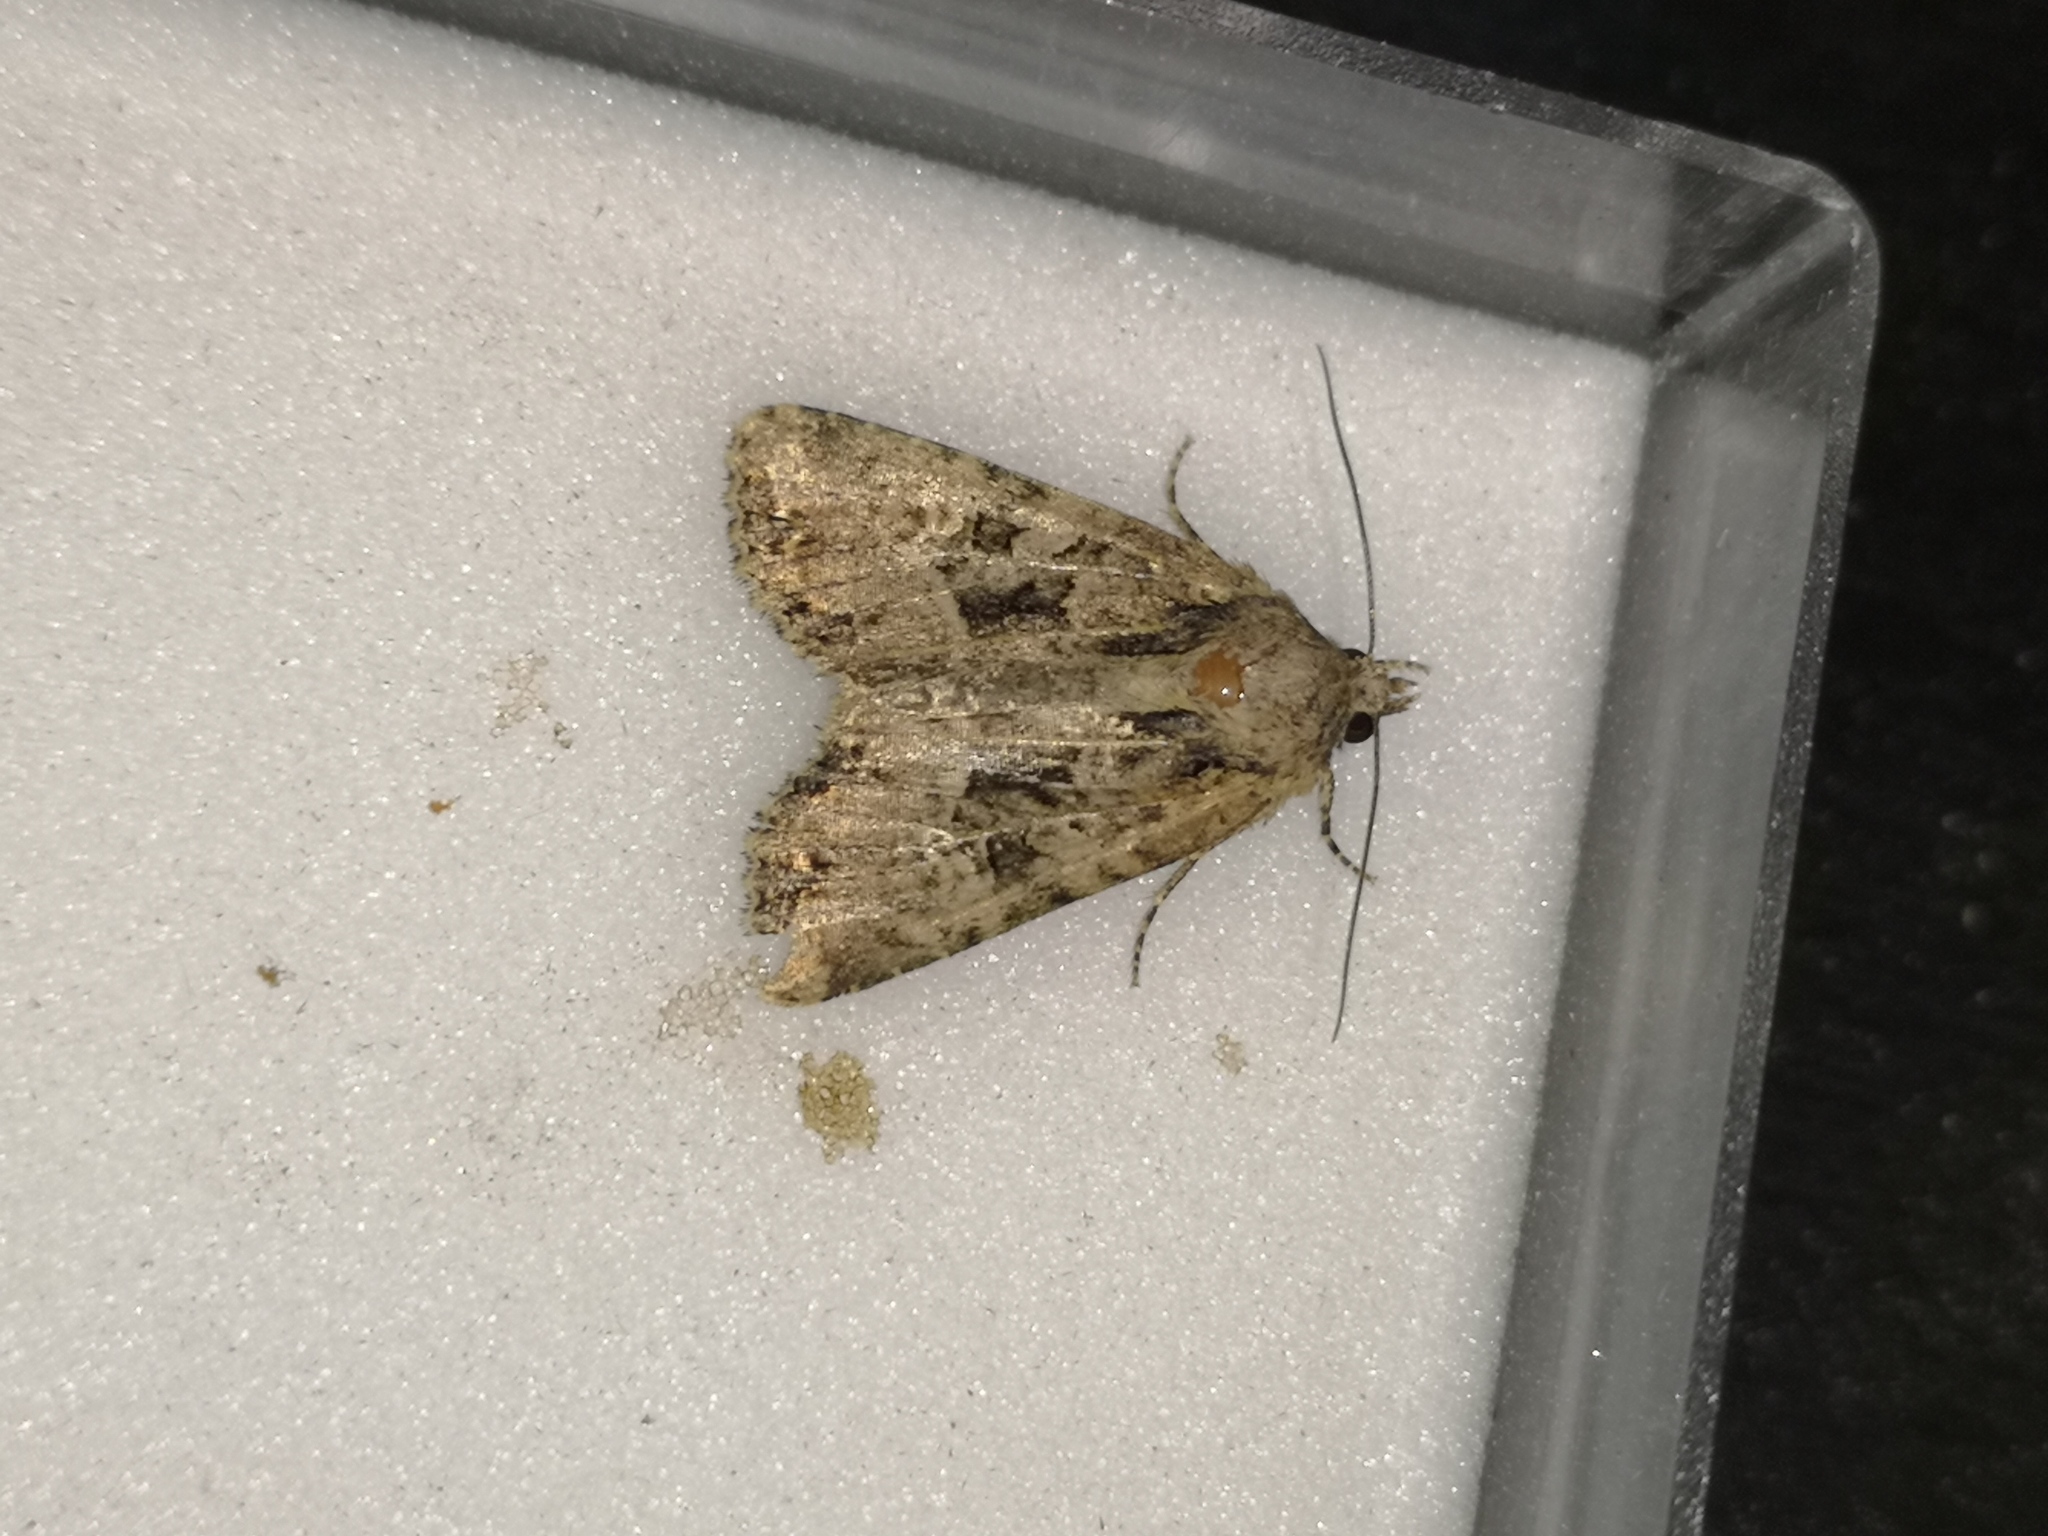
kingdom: Animalia
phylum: Arthropoda
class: Insecta
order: Lepidoptera
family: Noctuidae
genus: Mesapamea
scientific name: Mesapamea
